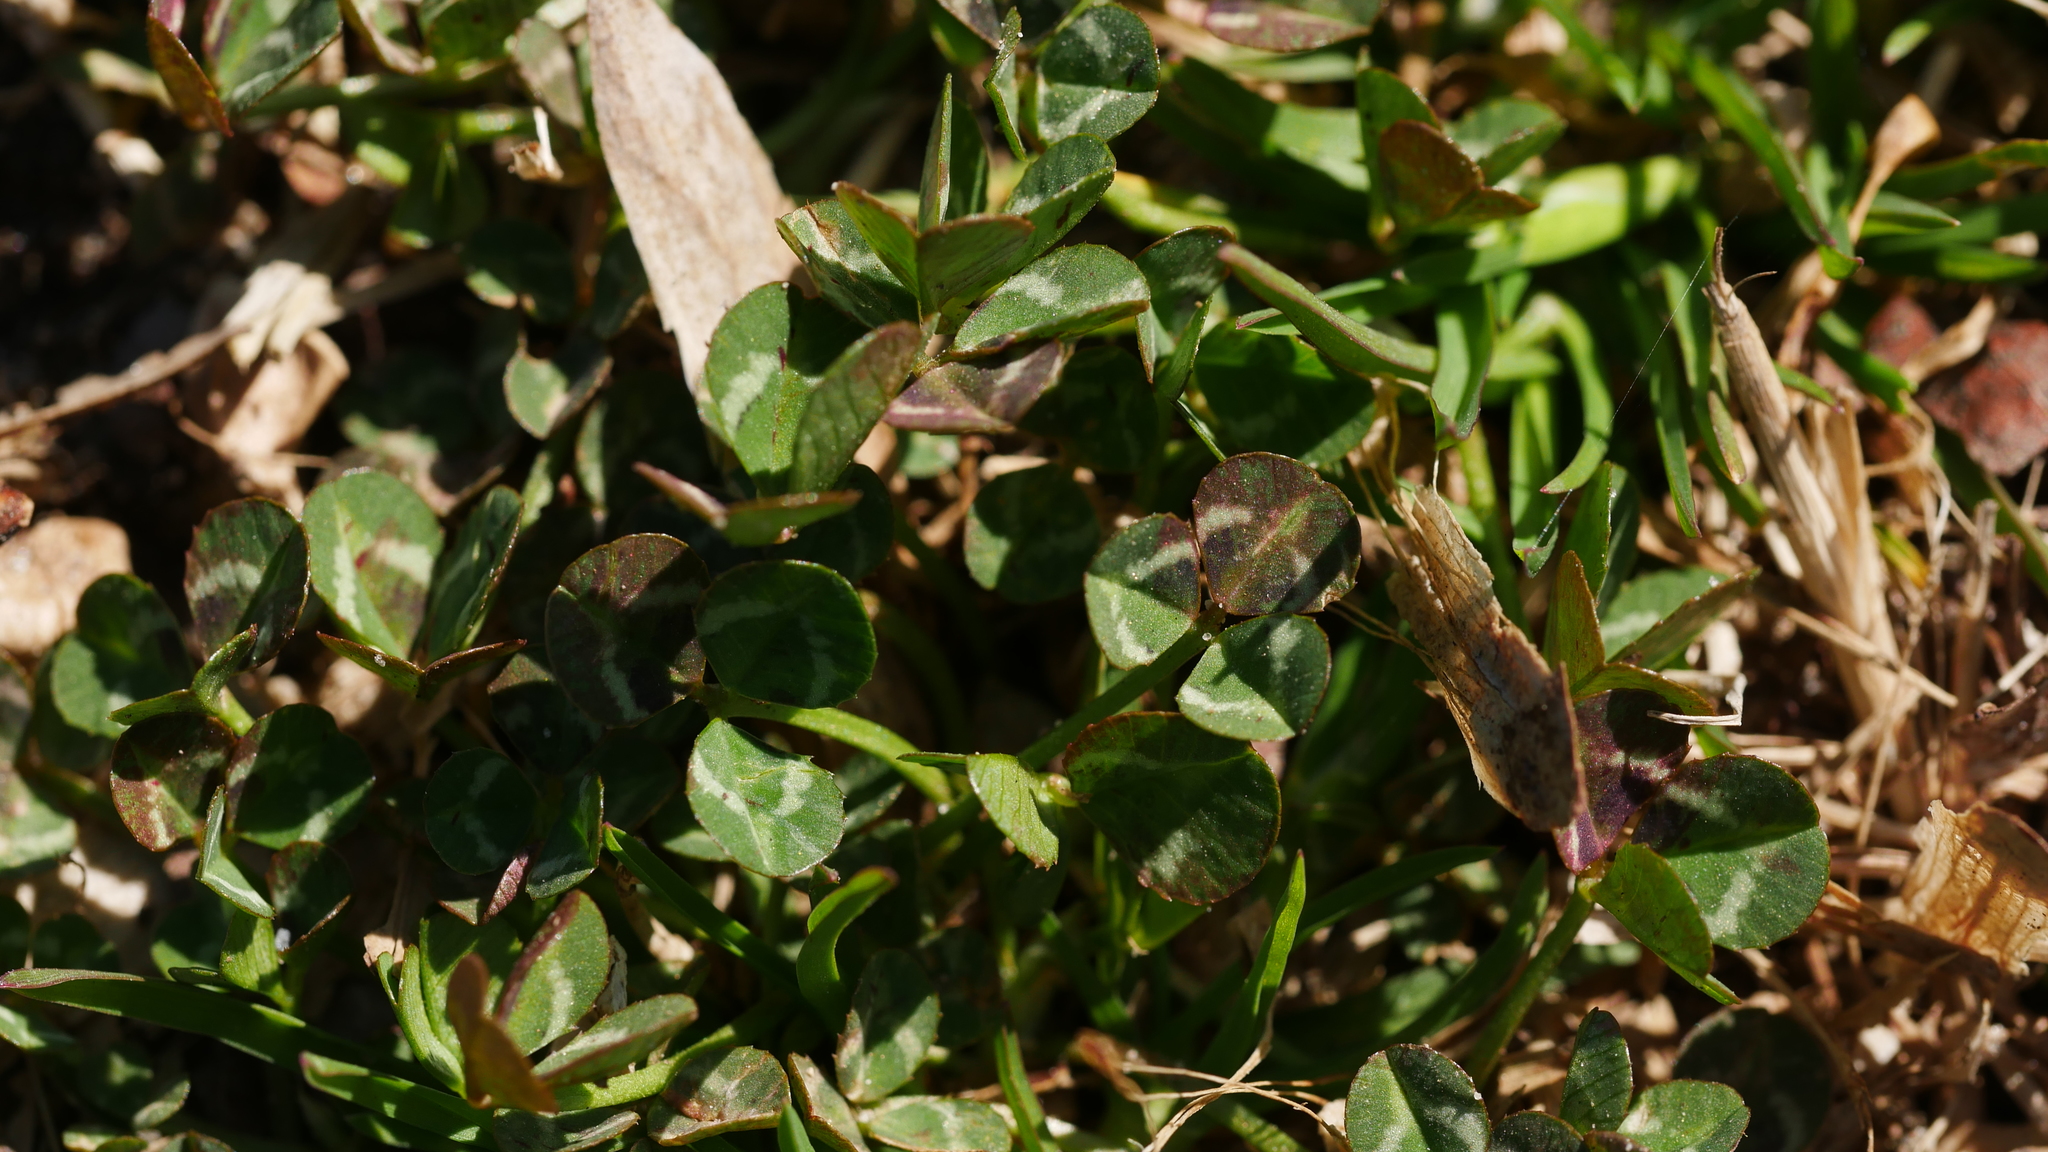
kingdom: Plantae
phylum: Tracheophyta
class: Magnoliopsida
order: Fabales
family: Fabaceae
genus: Trifolium
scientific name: Trifolium repens
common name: White clover
